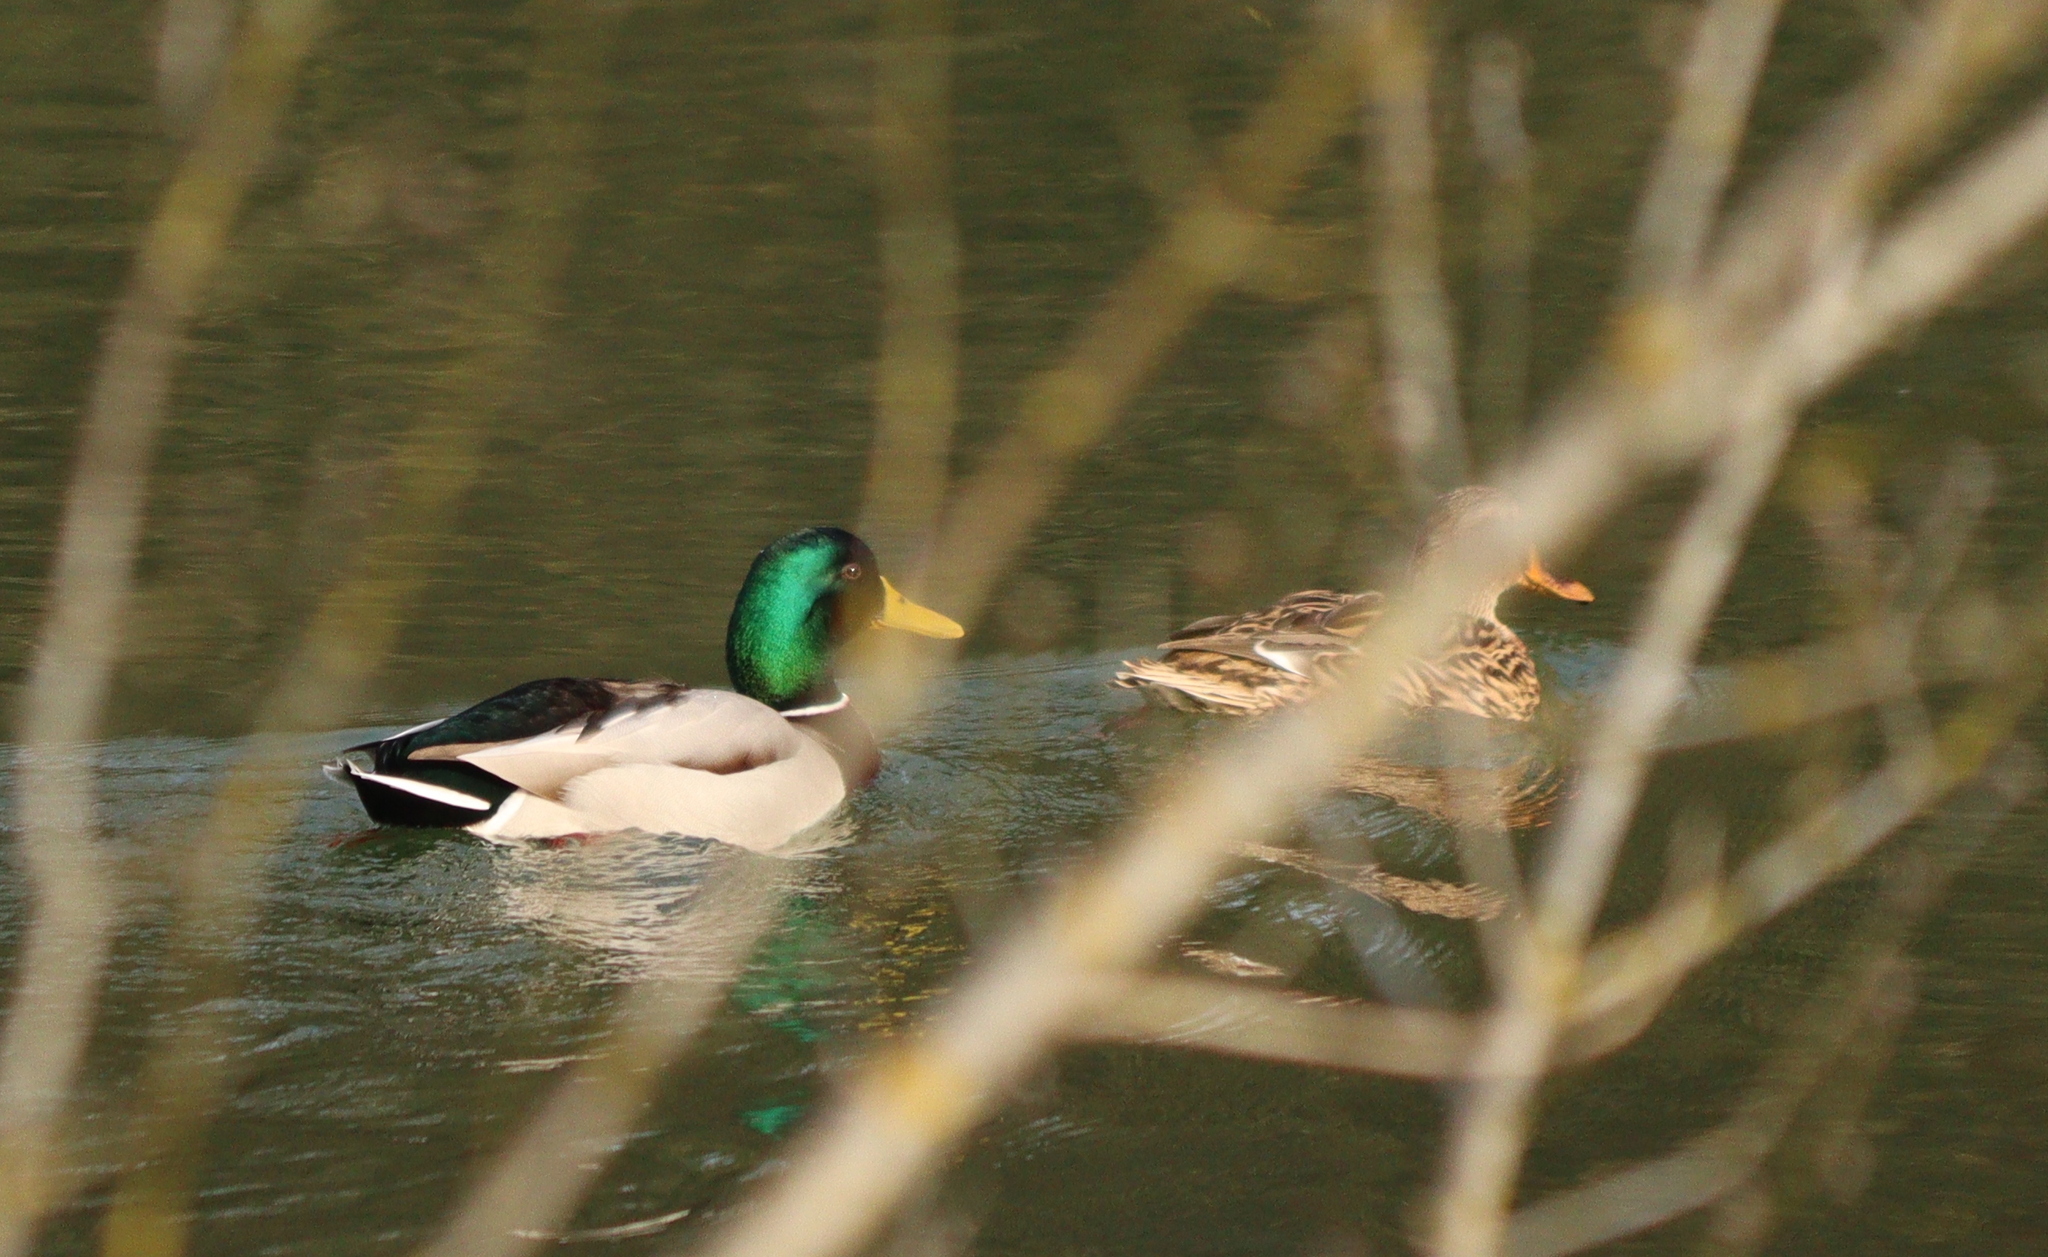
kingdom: Animalia
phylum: Chordata
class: Aves
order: Anseriformes
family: Anatidae
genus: Anas
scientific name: Anas platyrhynchos
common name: Mallard
